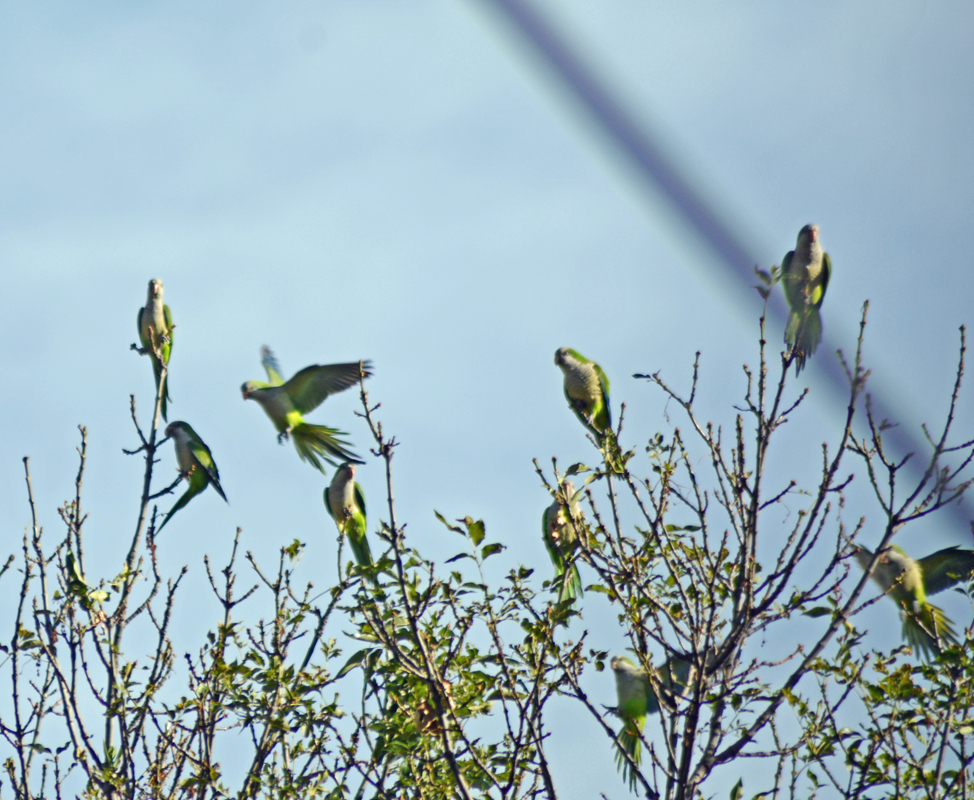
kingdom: Animalia
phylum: Chordata
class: Aves
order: Psittaciformes
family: Psittacidae
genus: Myiopsitta
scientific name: Myiopsitta monachus
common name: Monk parakeet
